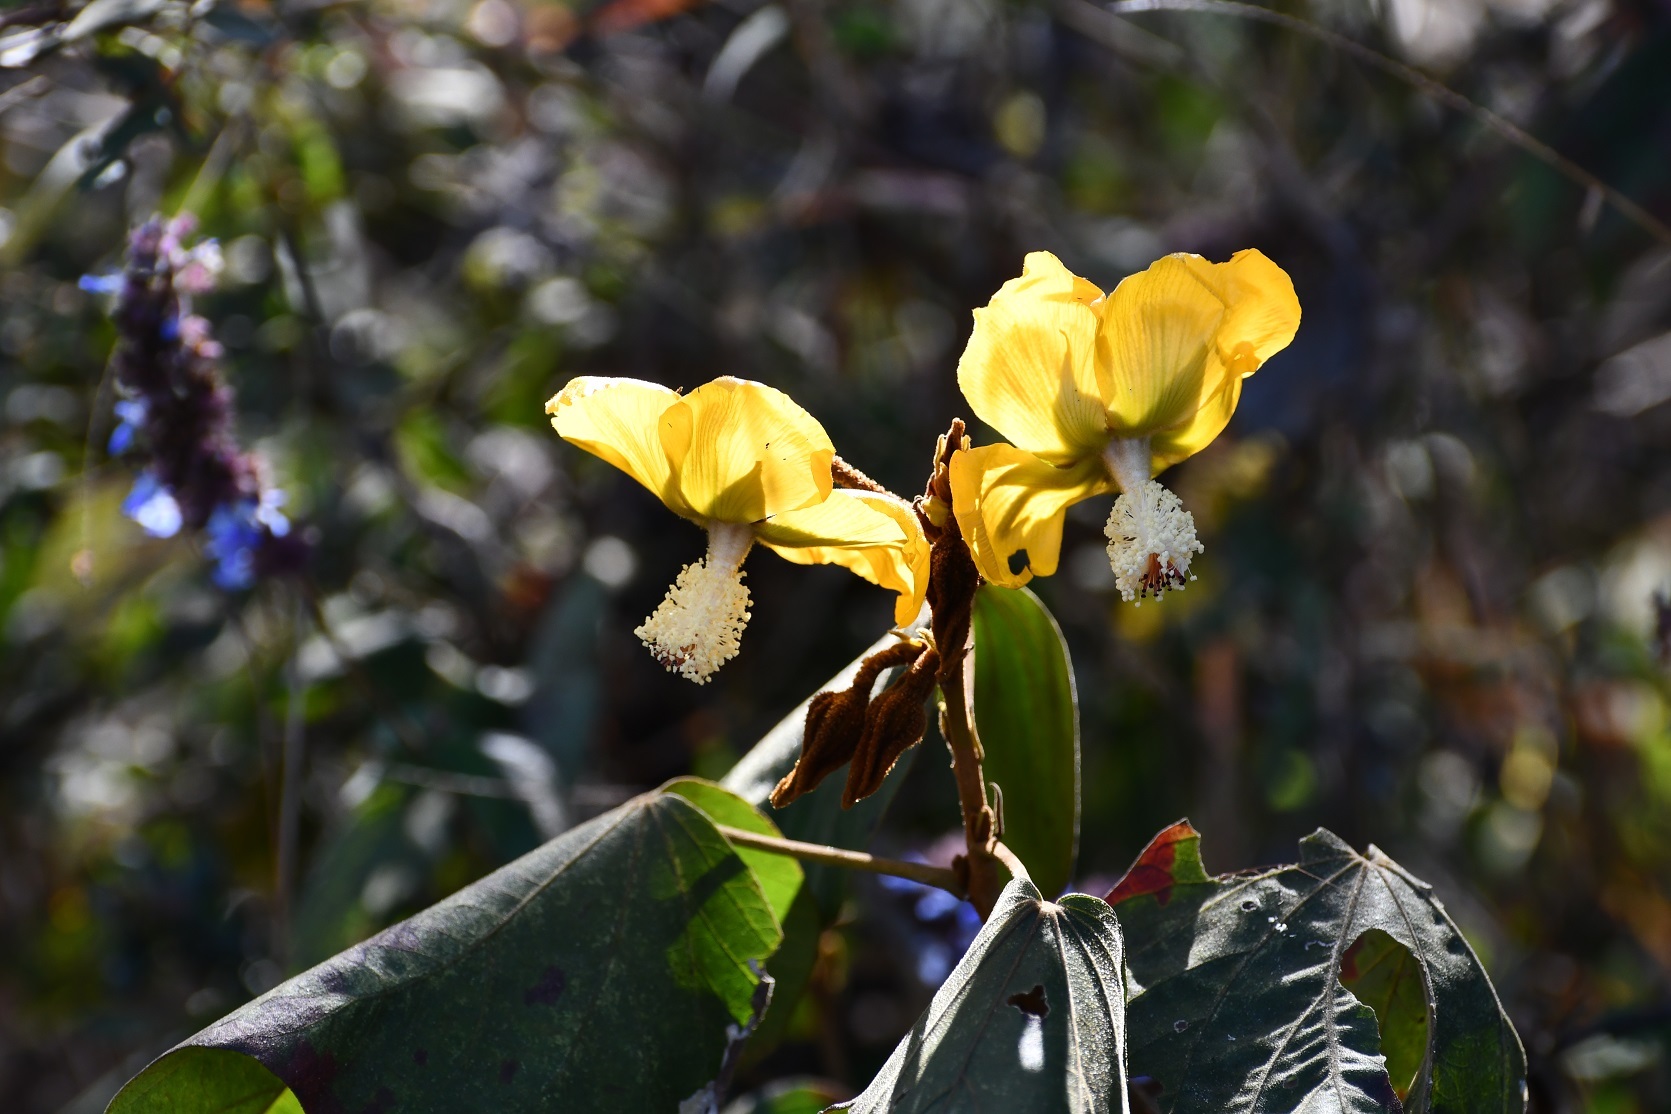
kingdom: Plantae
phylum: Tracheophyta
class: Magnoliopsida
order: Malvales
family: Malvaceae
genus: Bakeridesia
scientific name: Bakeridesia gloriosa
